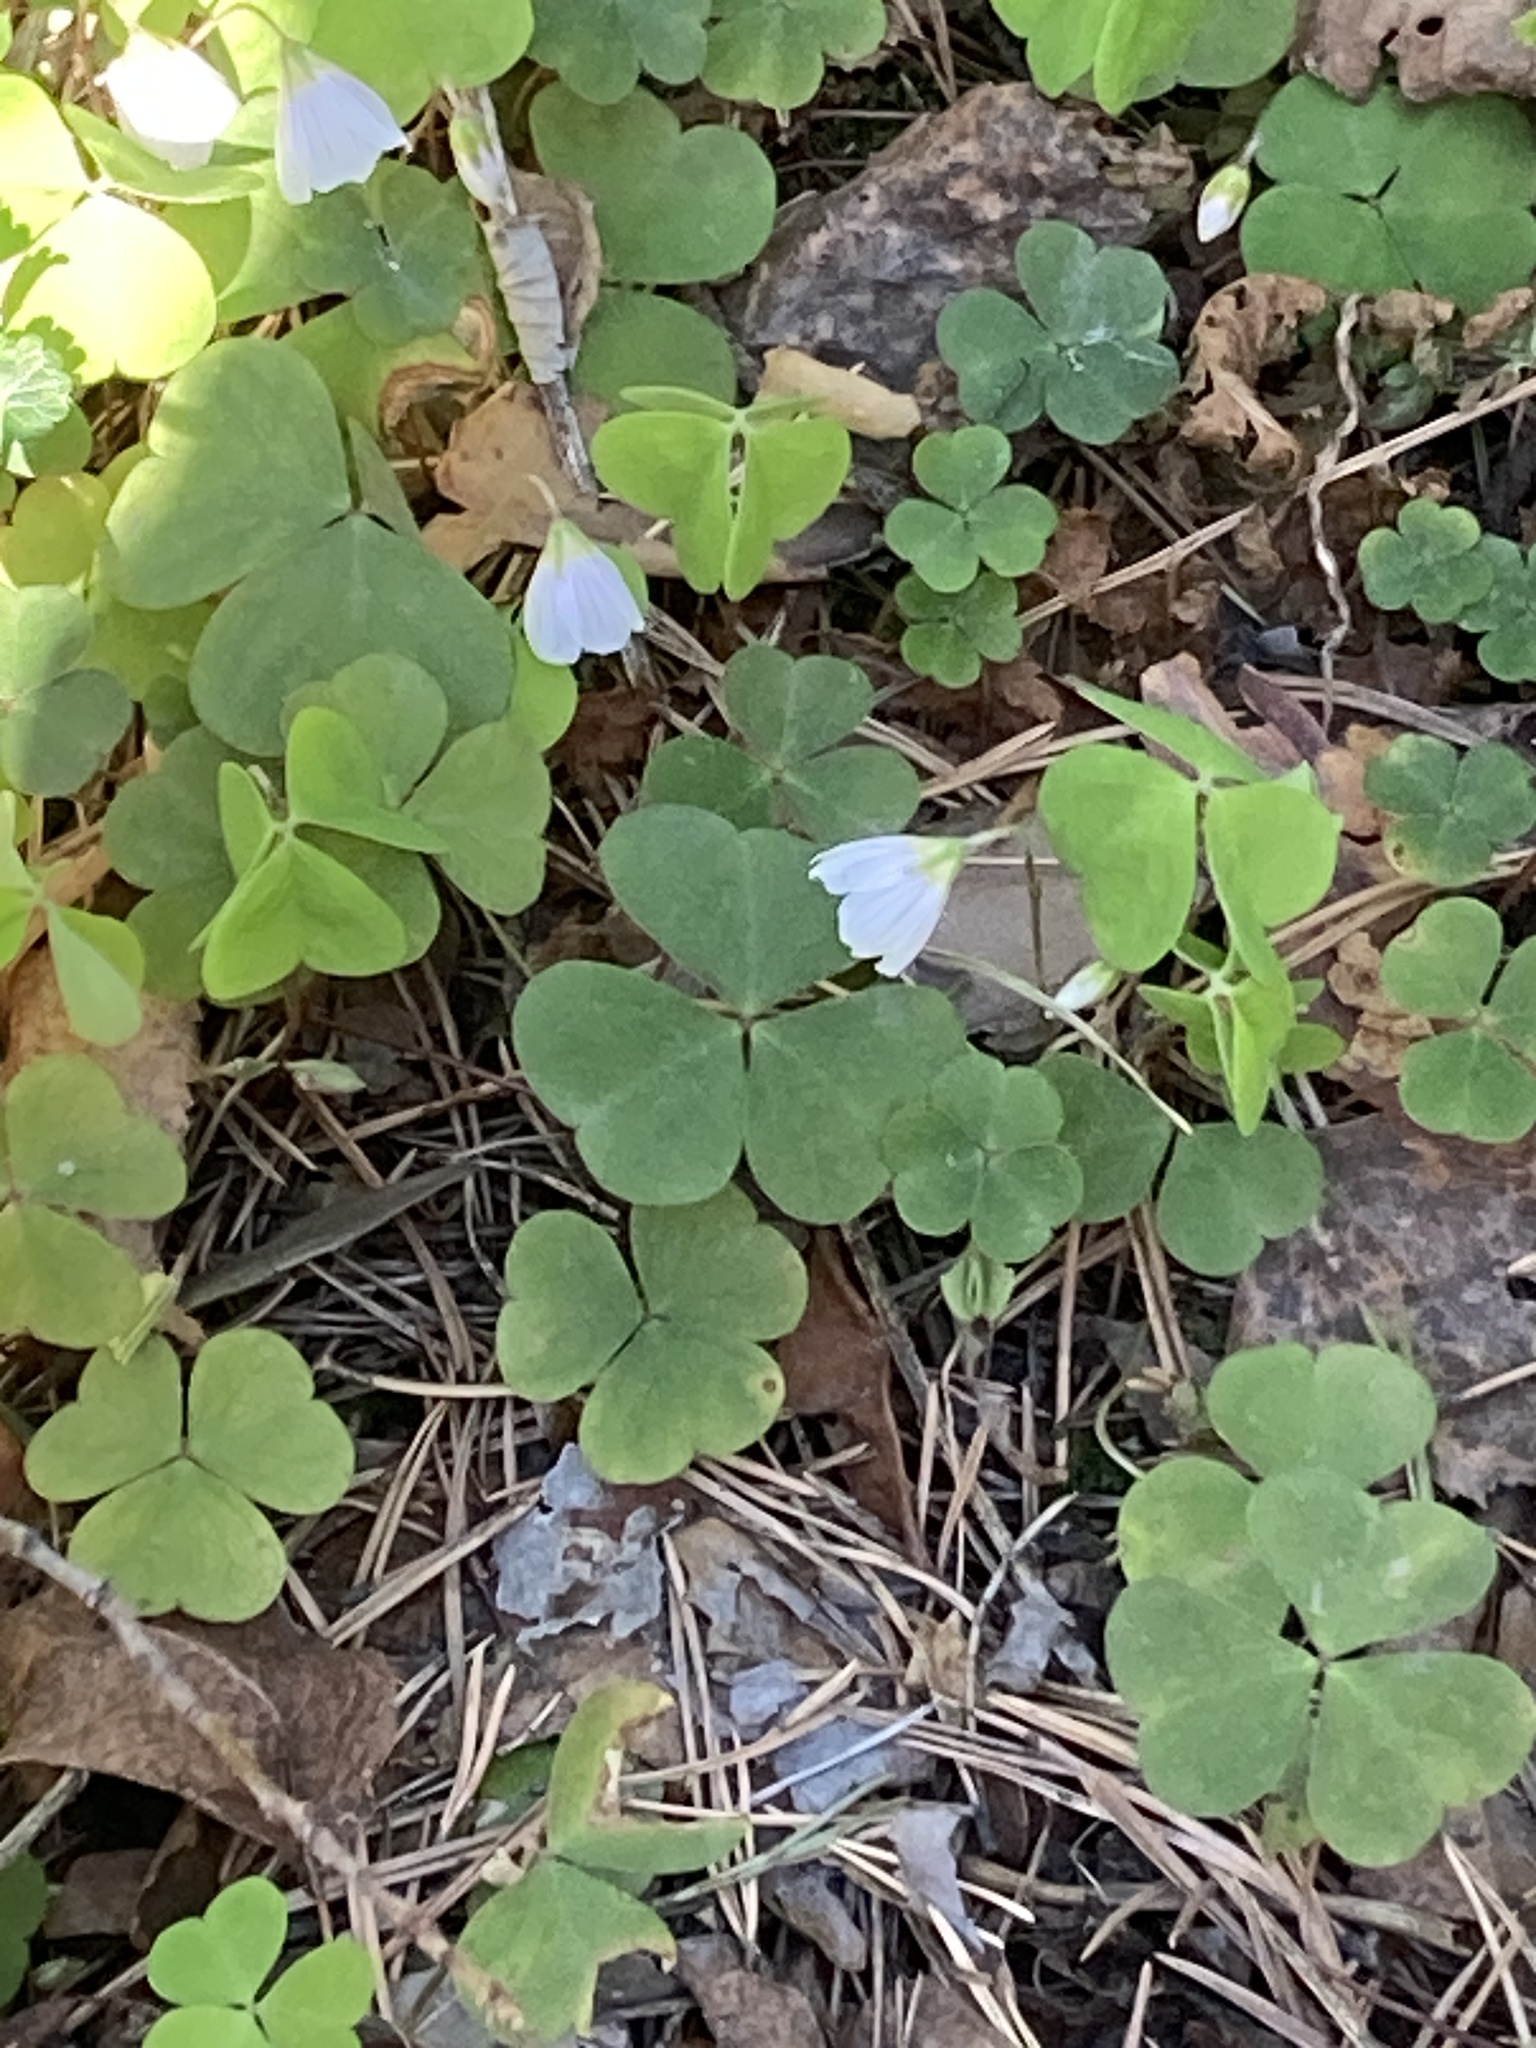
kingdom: Plantae
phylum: Tracheophyta
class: Magnoliopsida
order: Oxalidales
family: Oxalidaceae
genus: Oxalis
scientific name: Oxalis acetosella
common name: Wood-sorrel
